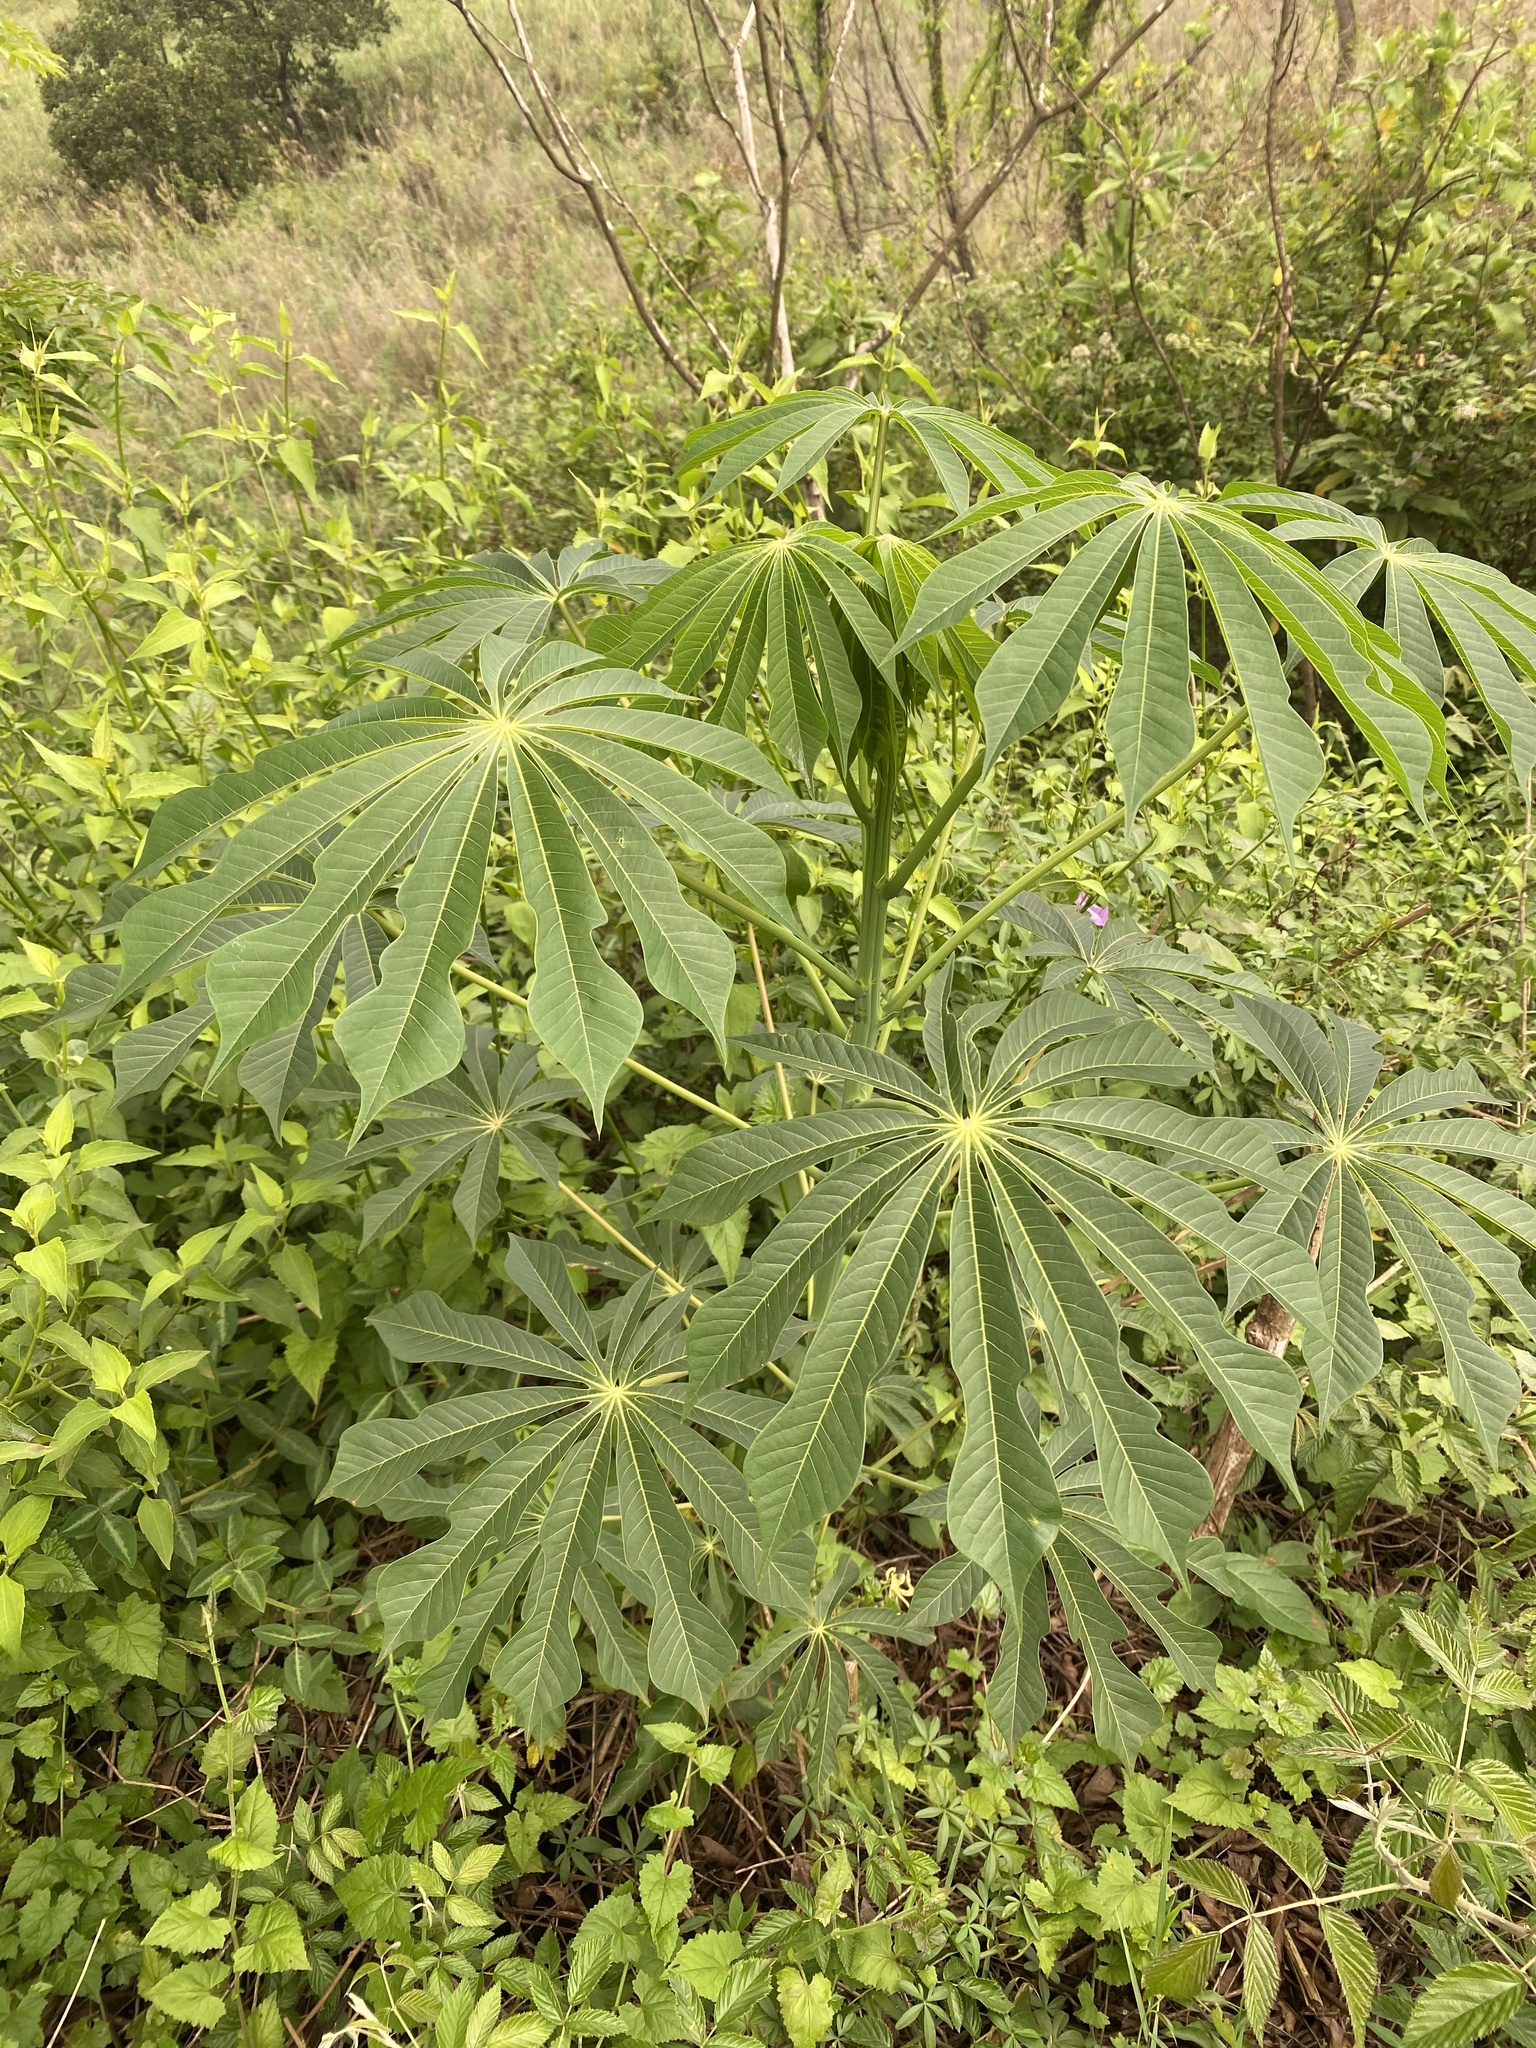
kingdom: Plantae
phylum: Tracheophyta
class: Magnoliopsida
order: Malpighiales
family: Euphorbiaceae
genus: Manihot
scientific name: Manihot grahamii
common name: Graham's manihot
